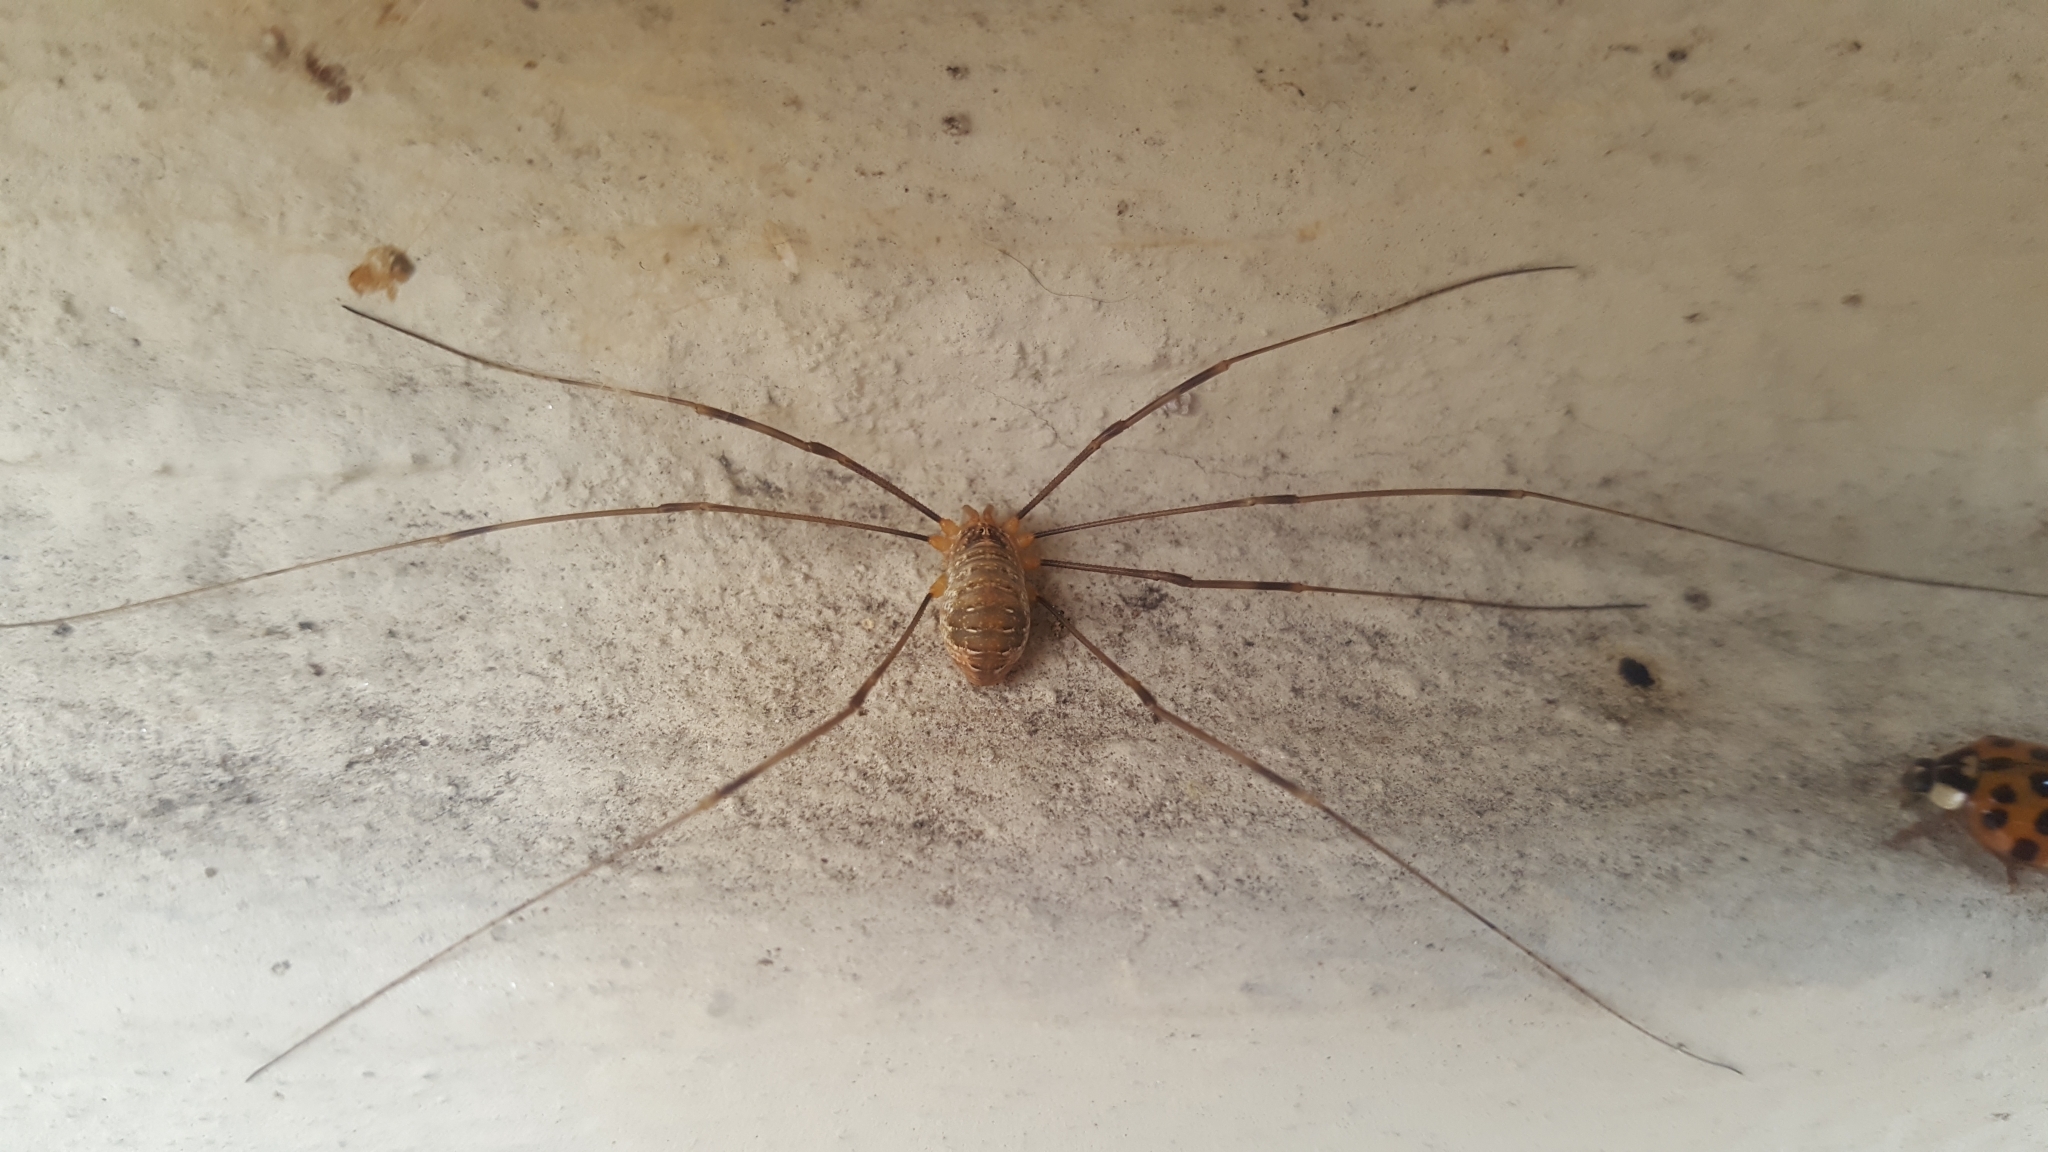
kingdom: Animalia
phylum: Arthropoda
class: Arachnida
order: Opiliones
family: Phalangiidae
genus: Opilio
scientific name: Opilio canestrinii
